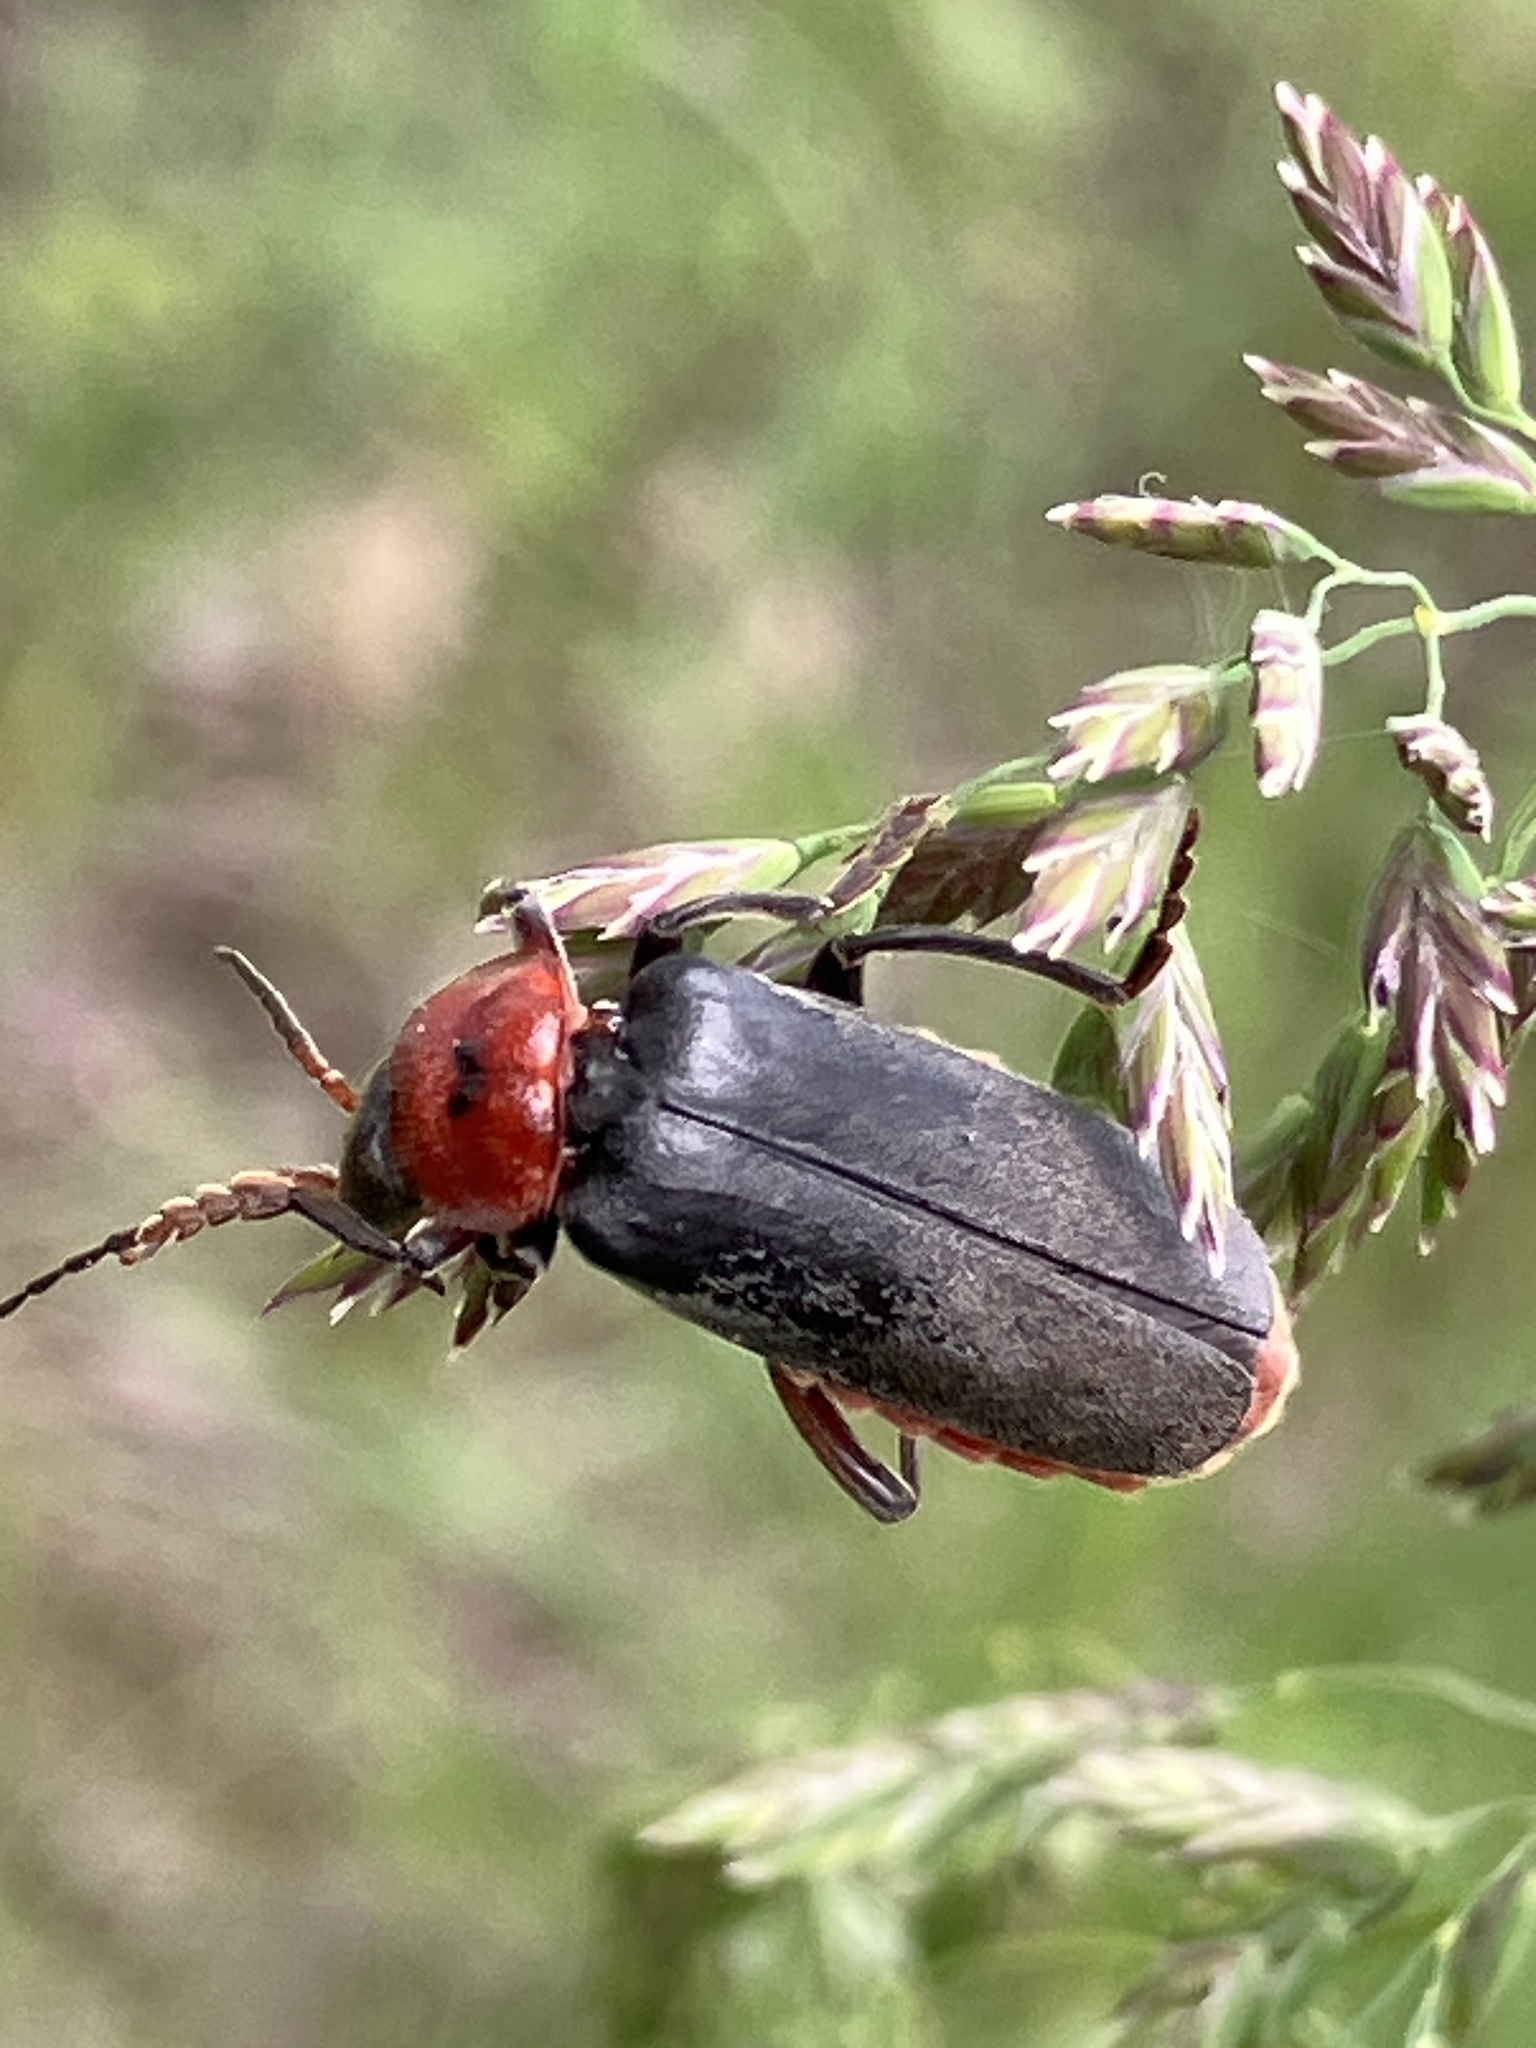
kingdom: Animalia
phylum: Arthropoda
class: Insecta
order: Coleoptera
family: Cantharidae
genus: Cantharis
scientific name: Cantharis rustica
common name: Soldier beetle
